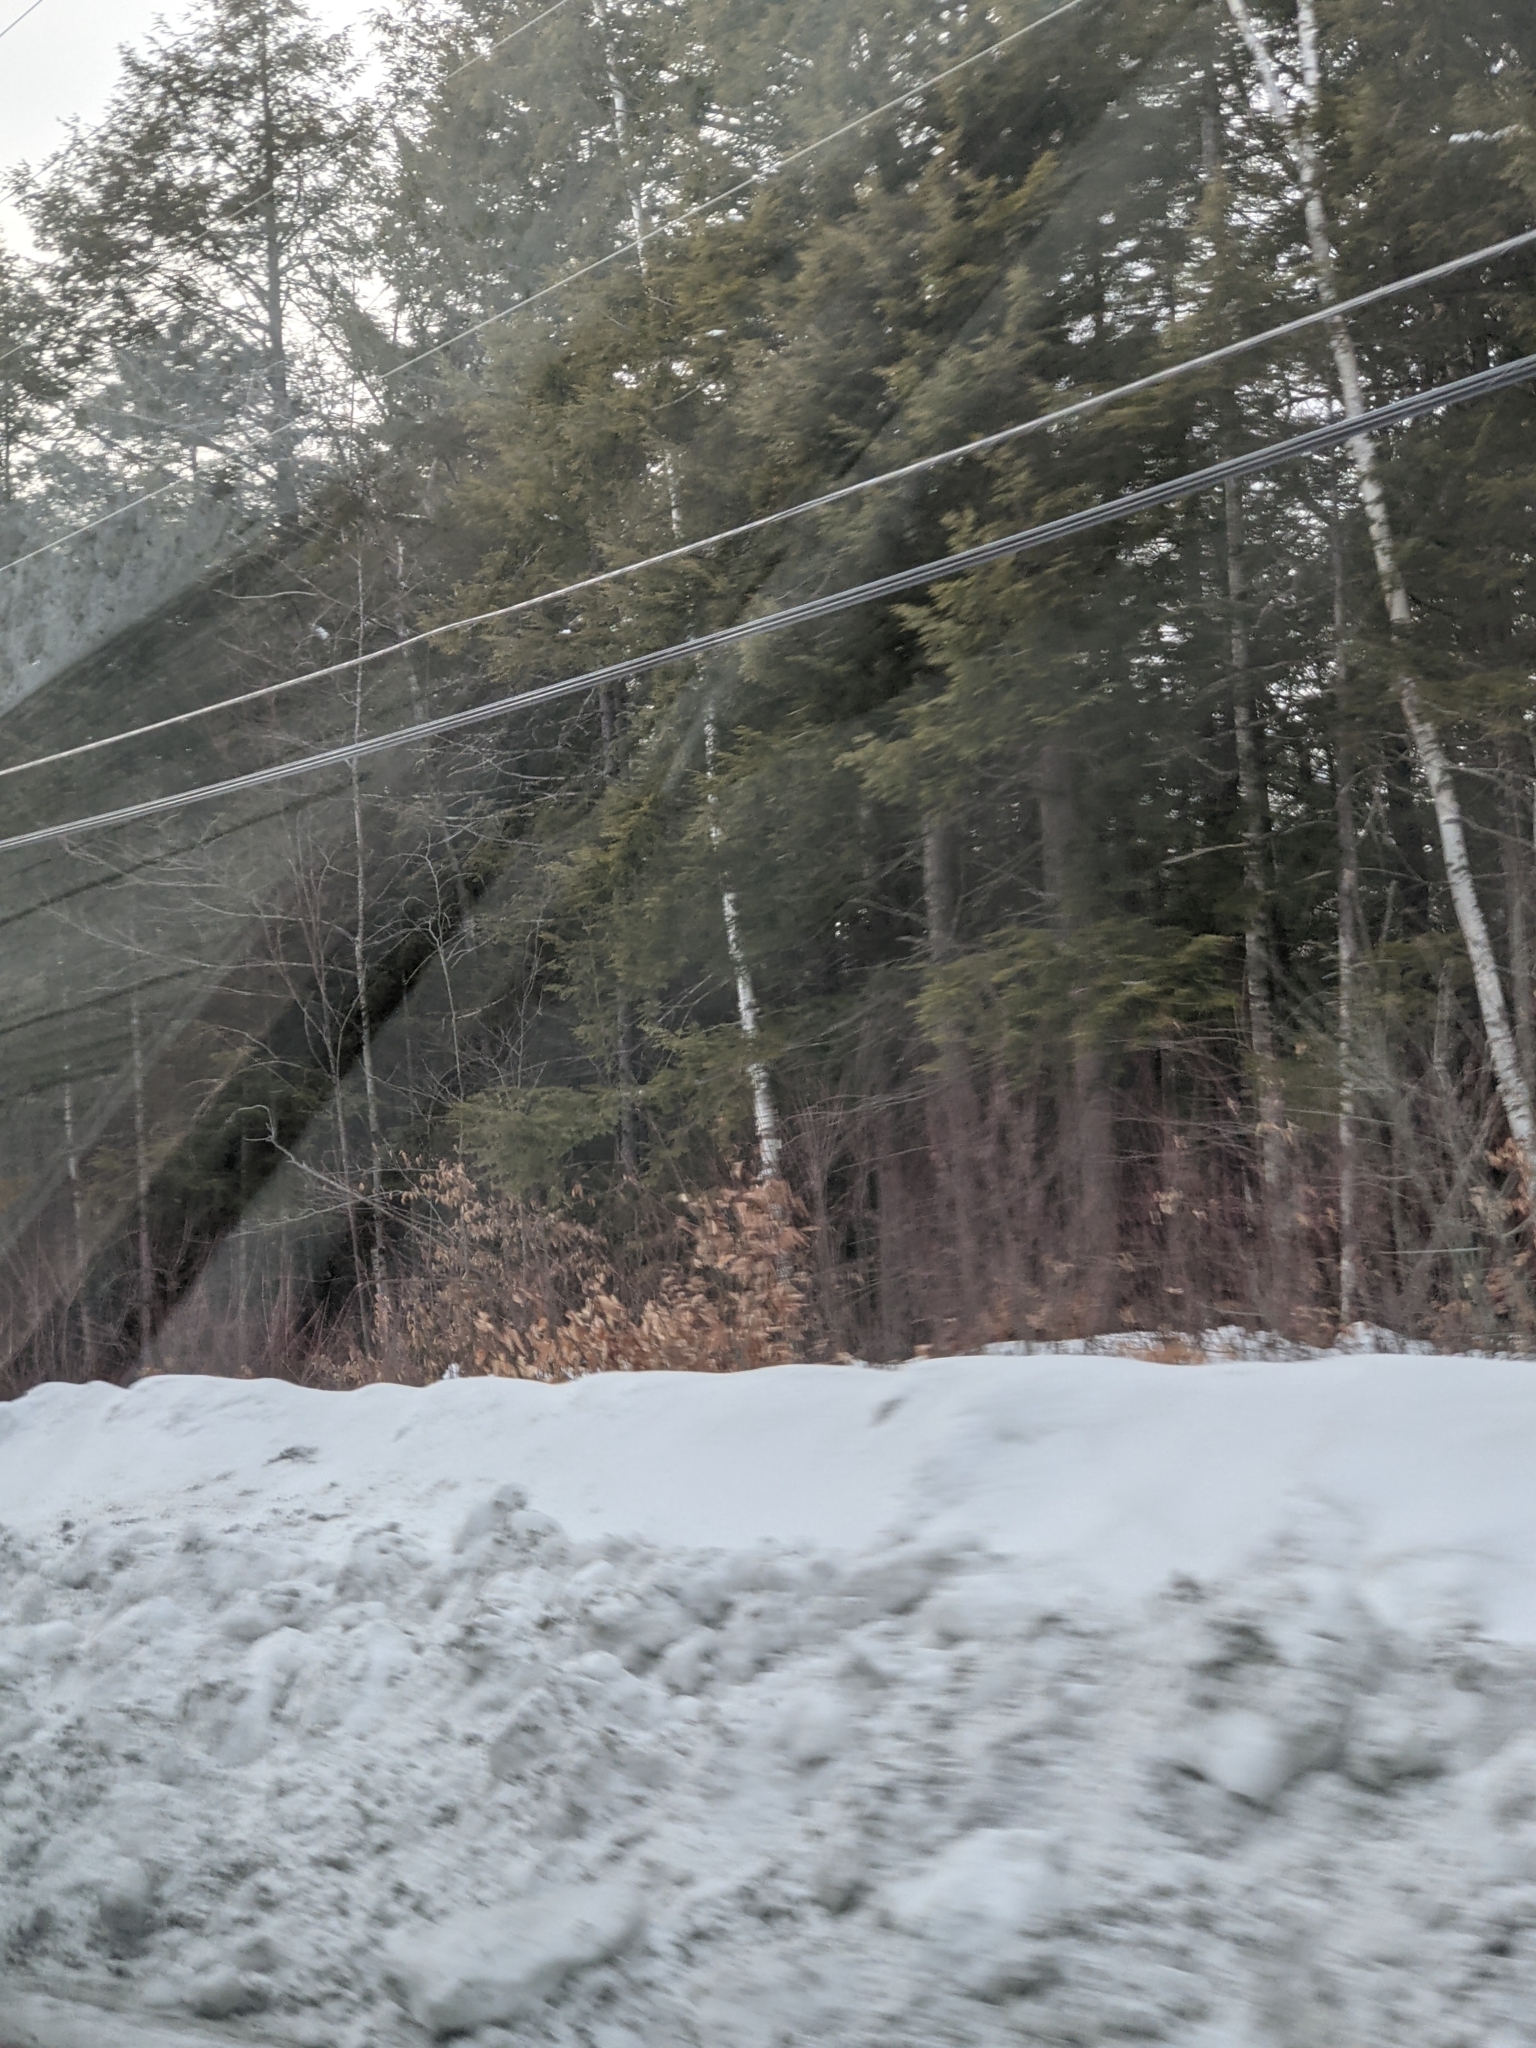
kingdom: Plantae
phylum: Tracheophyta
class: Magnoliopsida
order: Fagales
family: Fagaceae
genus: Fagus
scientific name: Fagus grandifolia
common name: American beech
